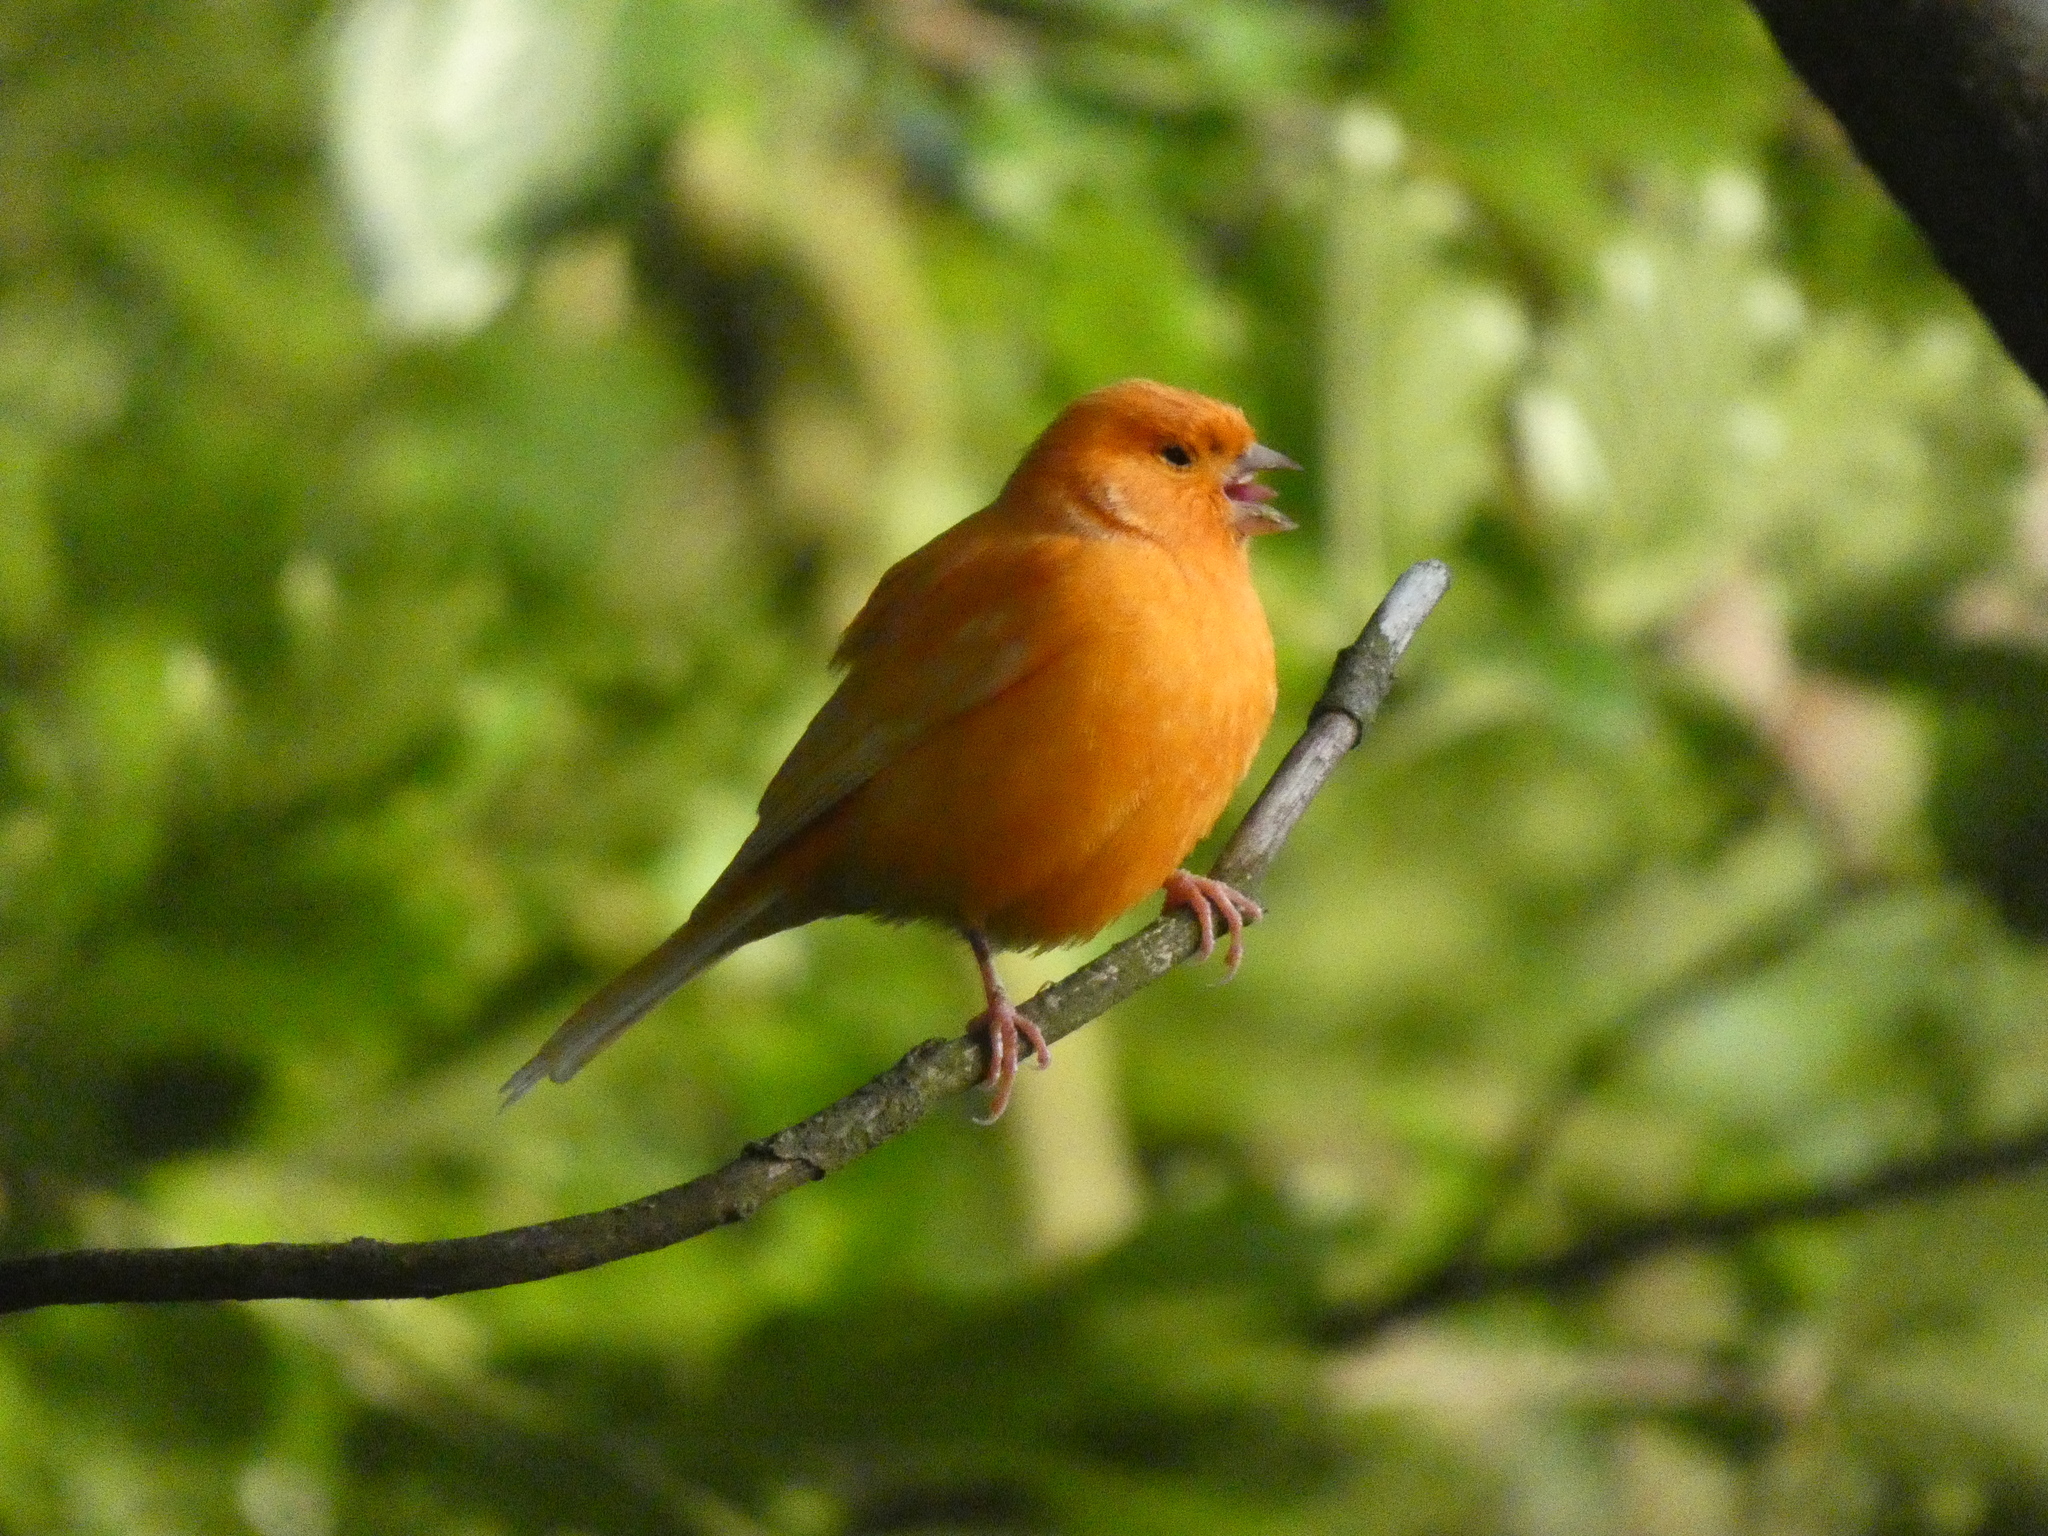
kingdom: Animalia
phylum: Chordata
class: Aves
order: Passeriformes
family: Fringillidae
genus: Serinus
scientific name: Serinus canaria
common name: Atlantic canary
